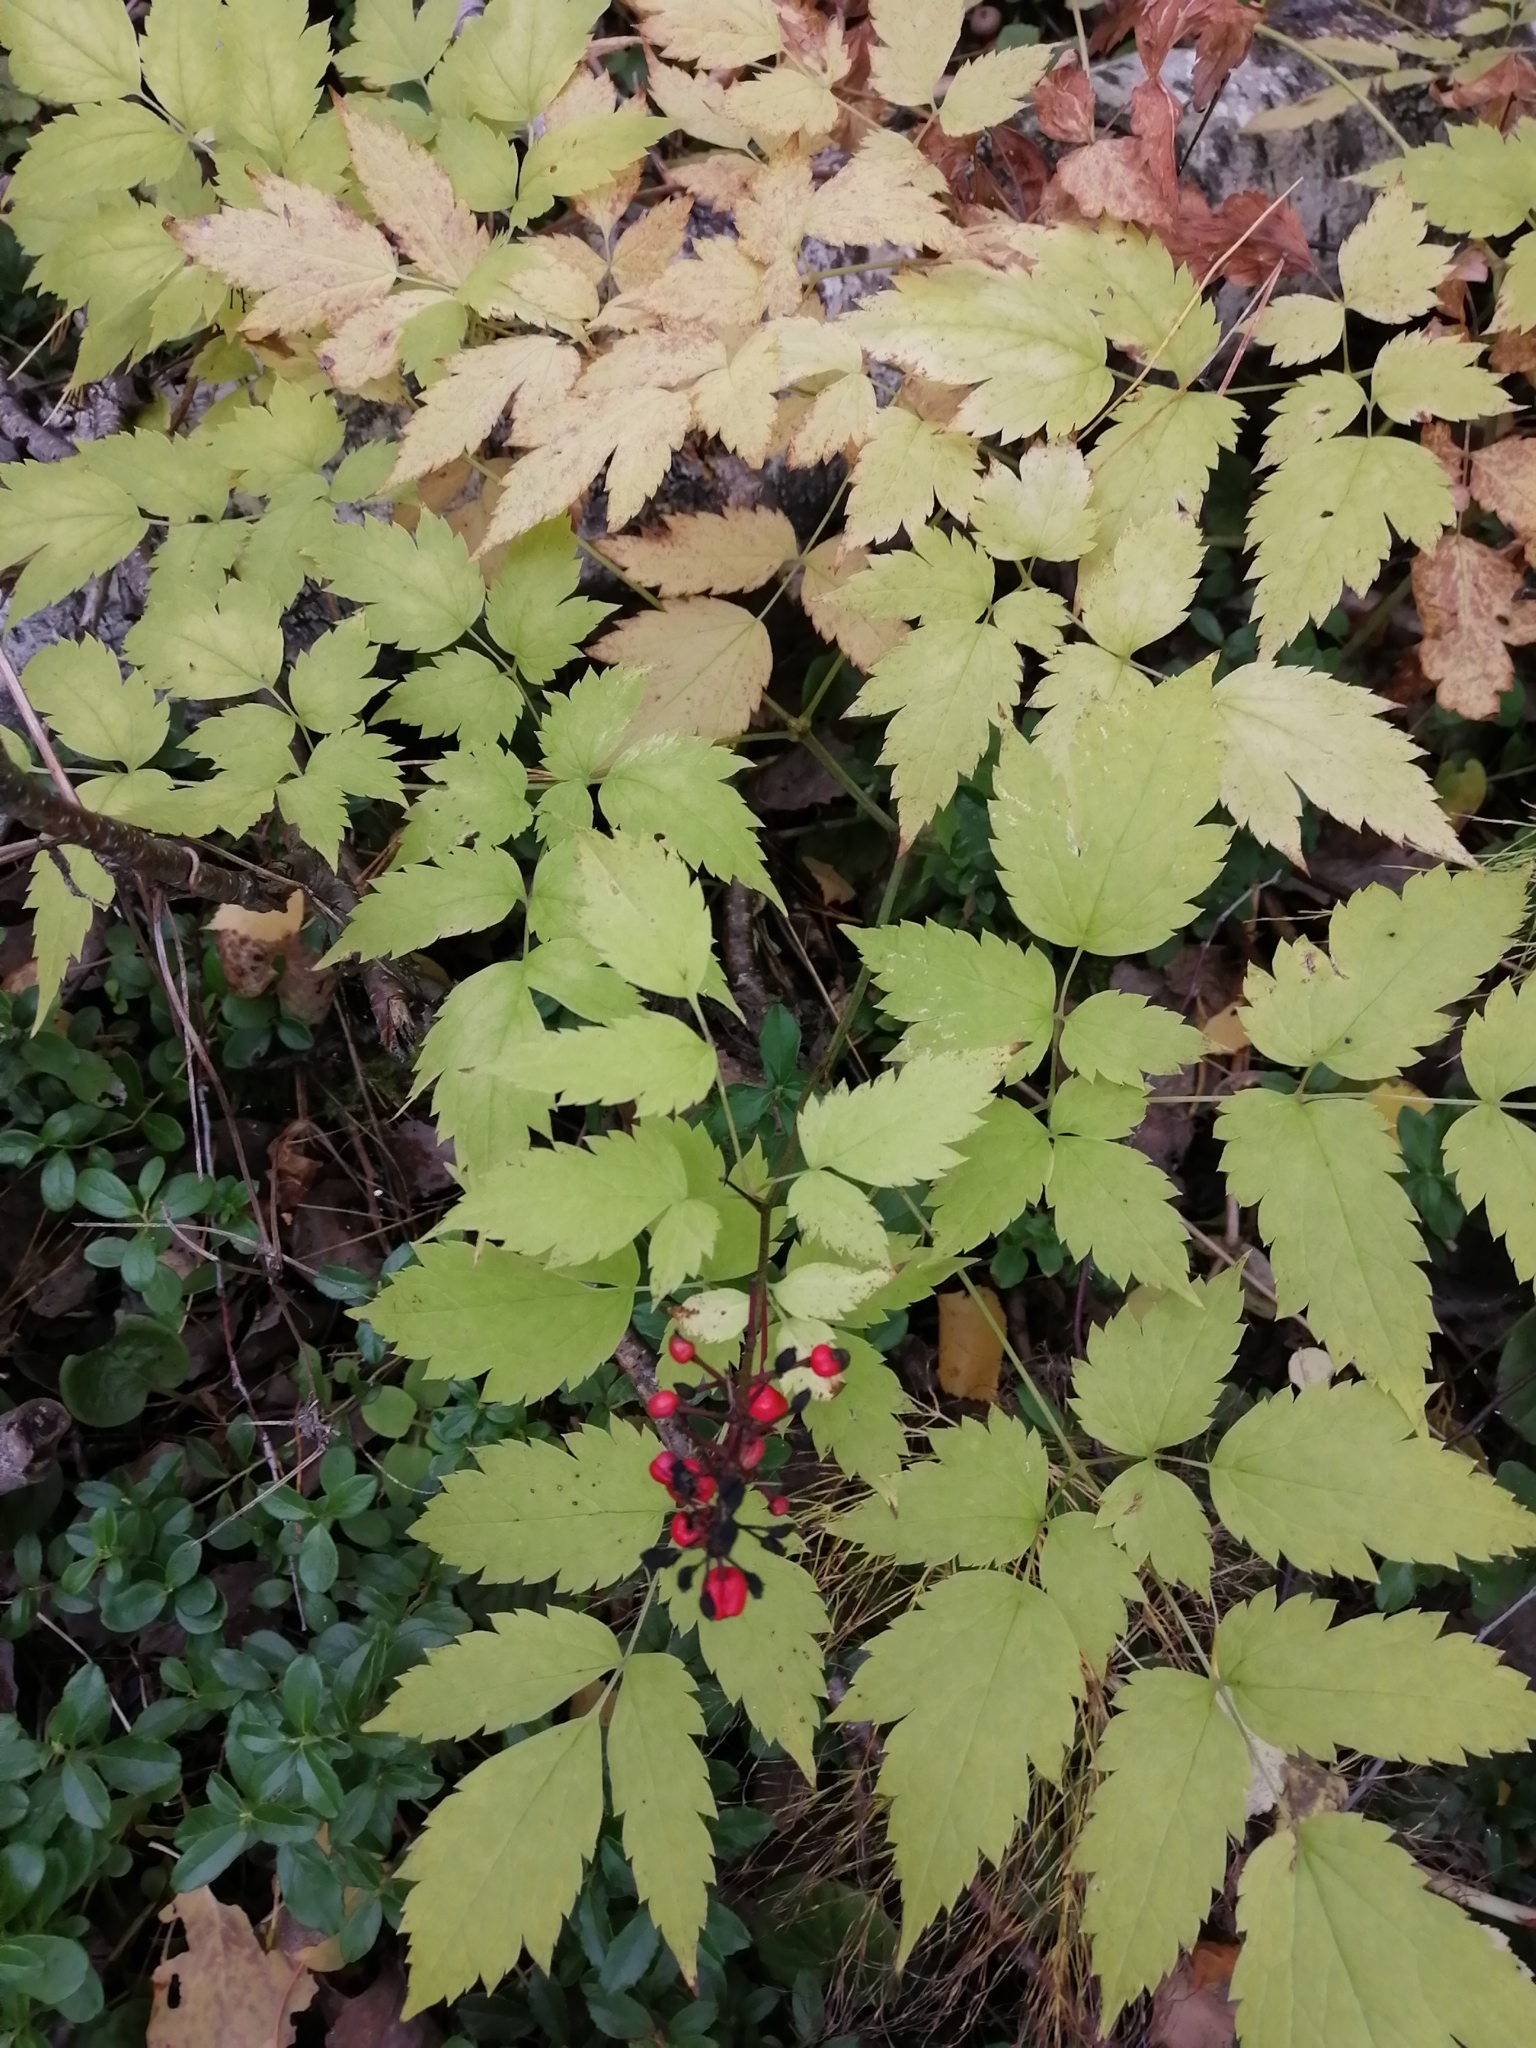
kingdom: Plantae
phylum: Tracheophyta
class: Magnoliopsida
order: Ranunculales
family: Ranunculaceae
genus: Actaea
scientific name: Actaea erythrocarpa
